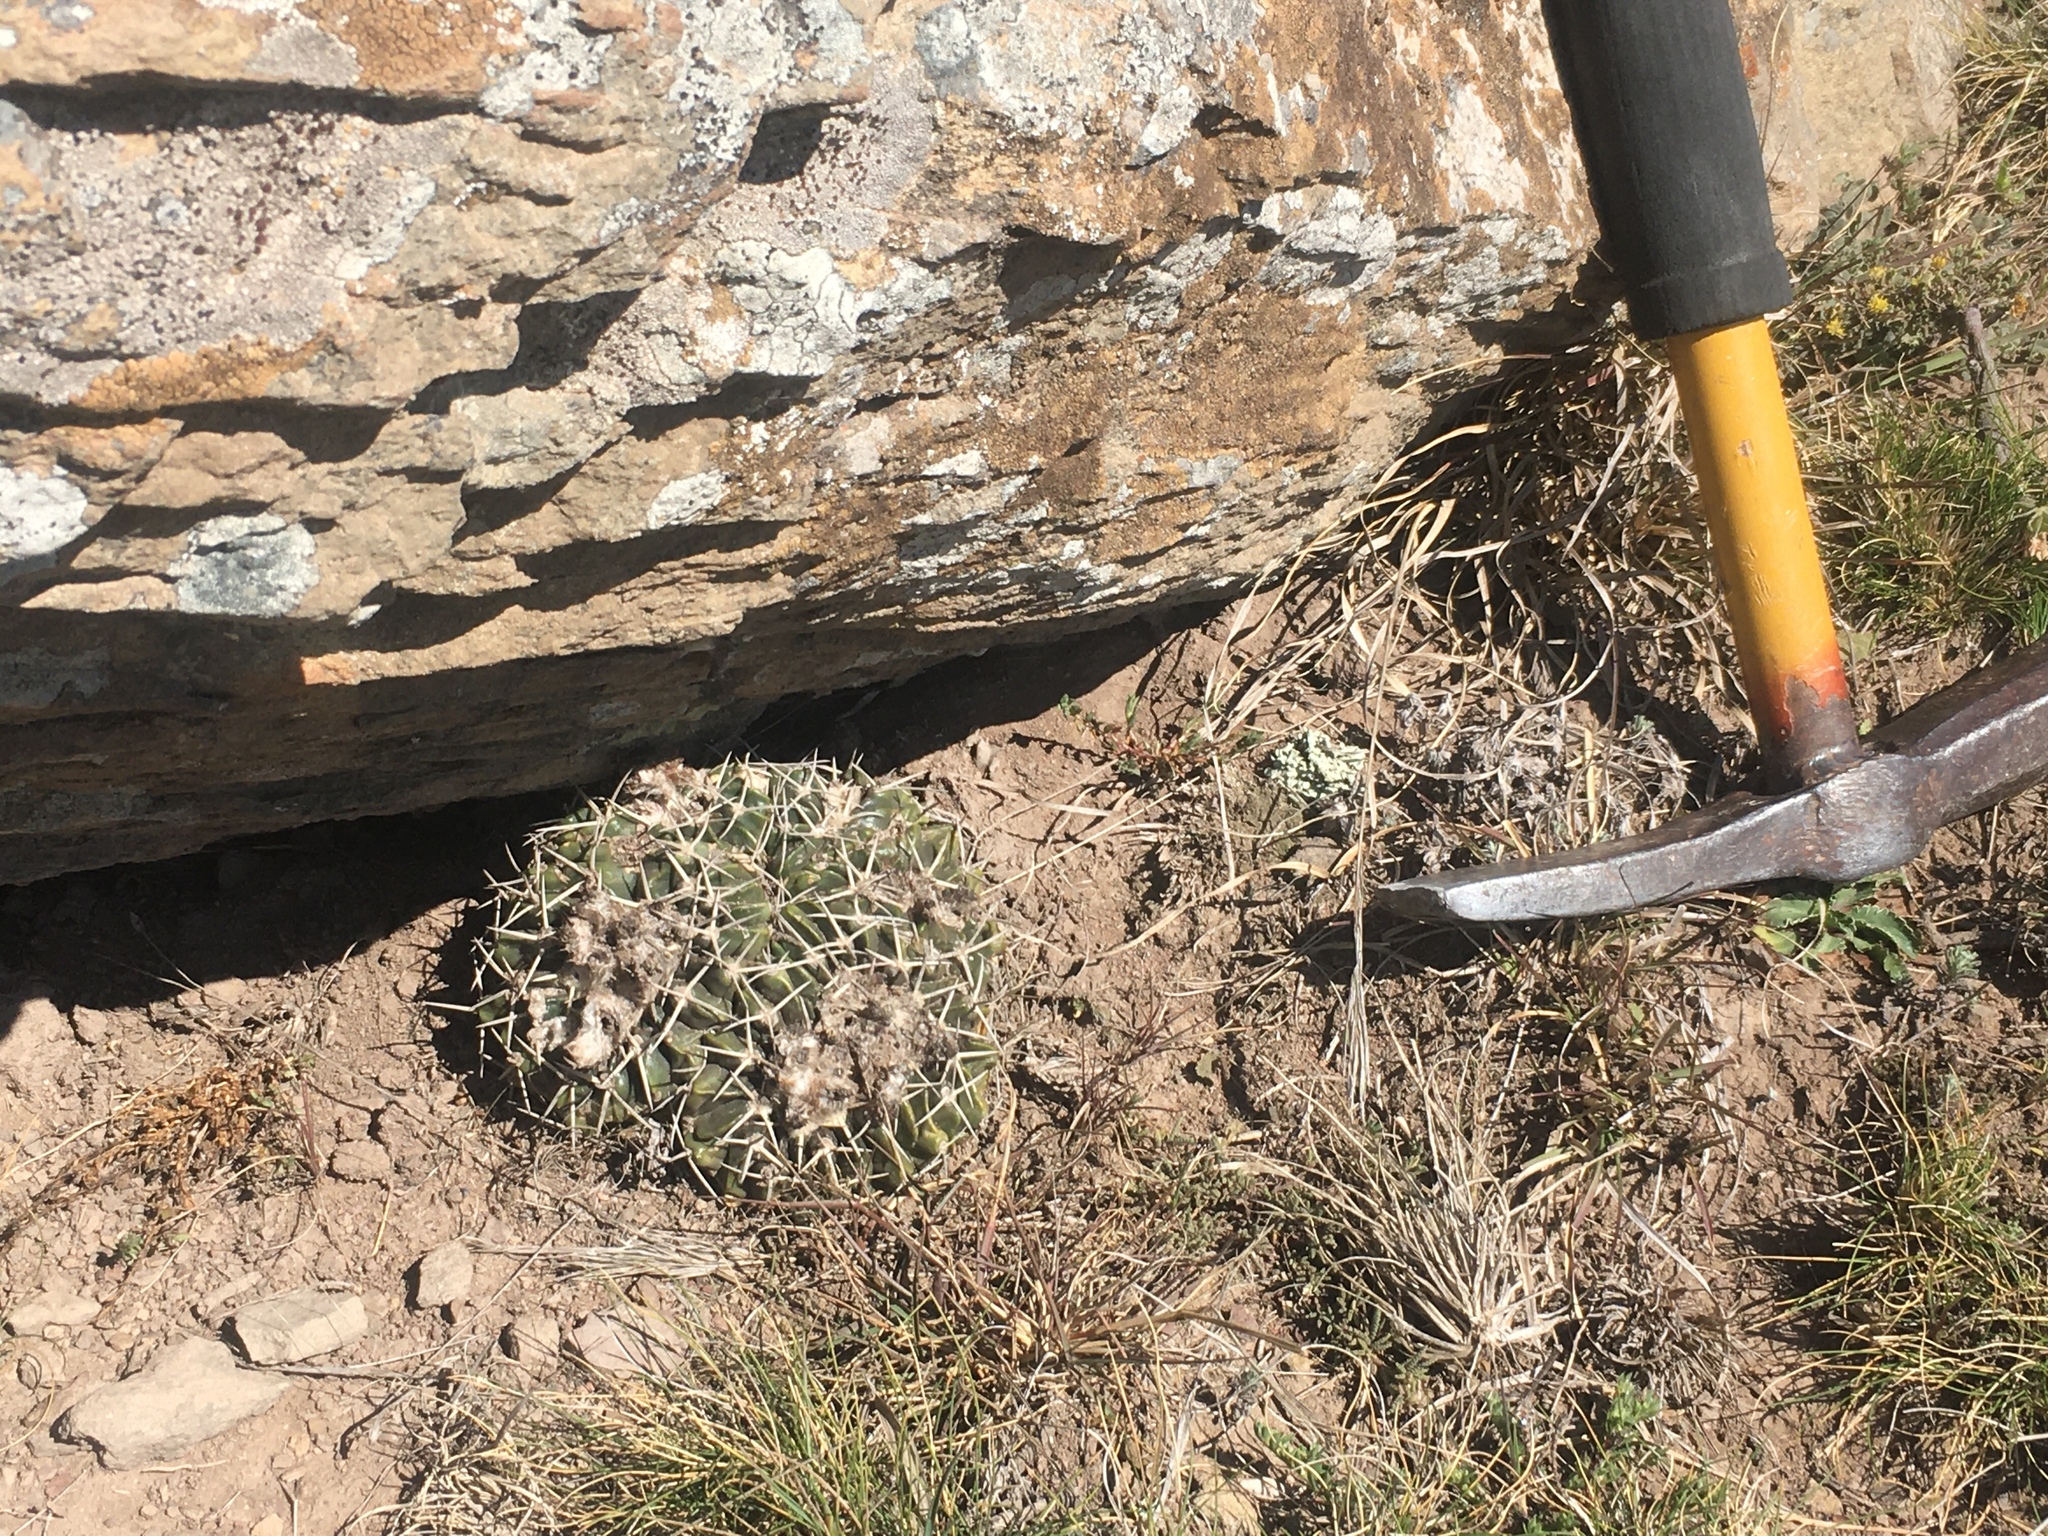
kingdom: Plantae
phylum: Tracheophyta
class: Magnoliopsida
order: Caryophyllales
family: Cactaceae
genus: Parodia
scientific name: Parodia erinacea
